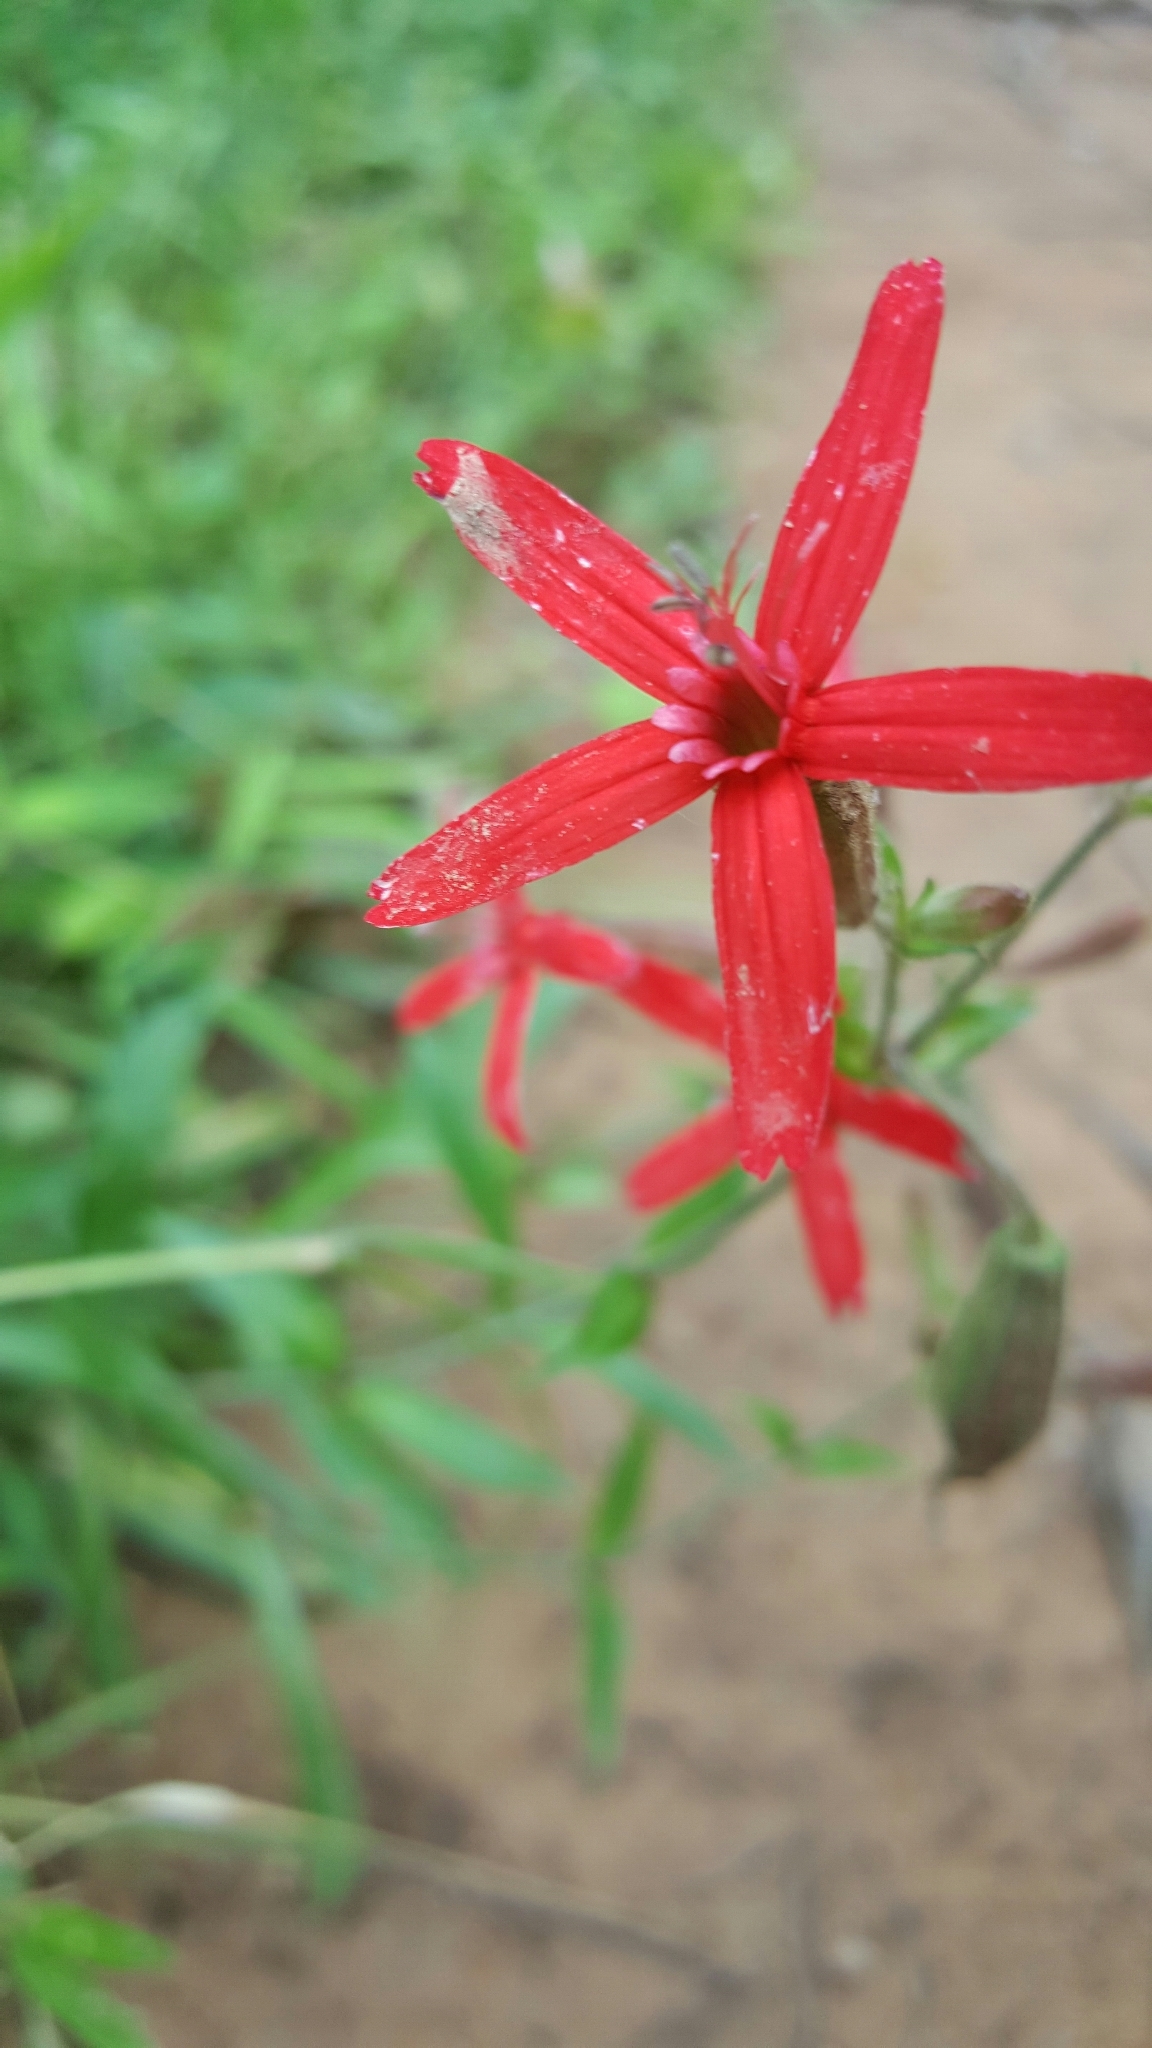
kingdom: Plantae
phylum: Tracheophyta
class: Magnoliopsida
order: Caryophyllales
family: Caryophyllaceae
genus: Silene
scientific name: Silene virginica
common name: Fire-pink
